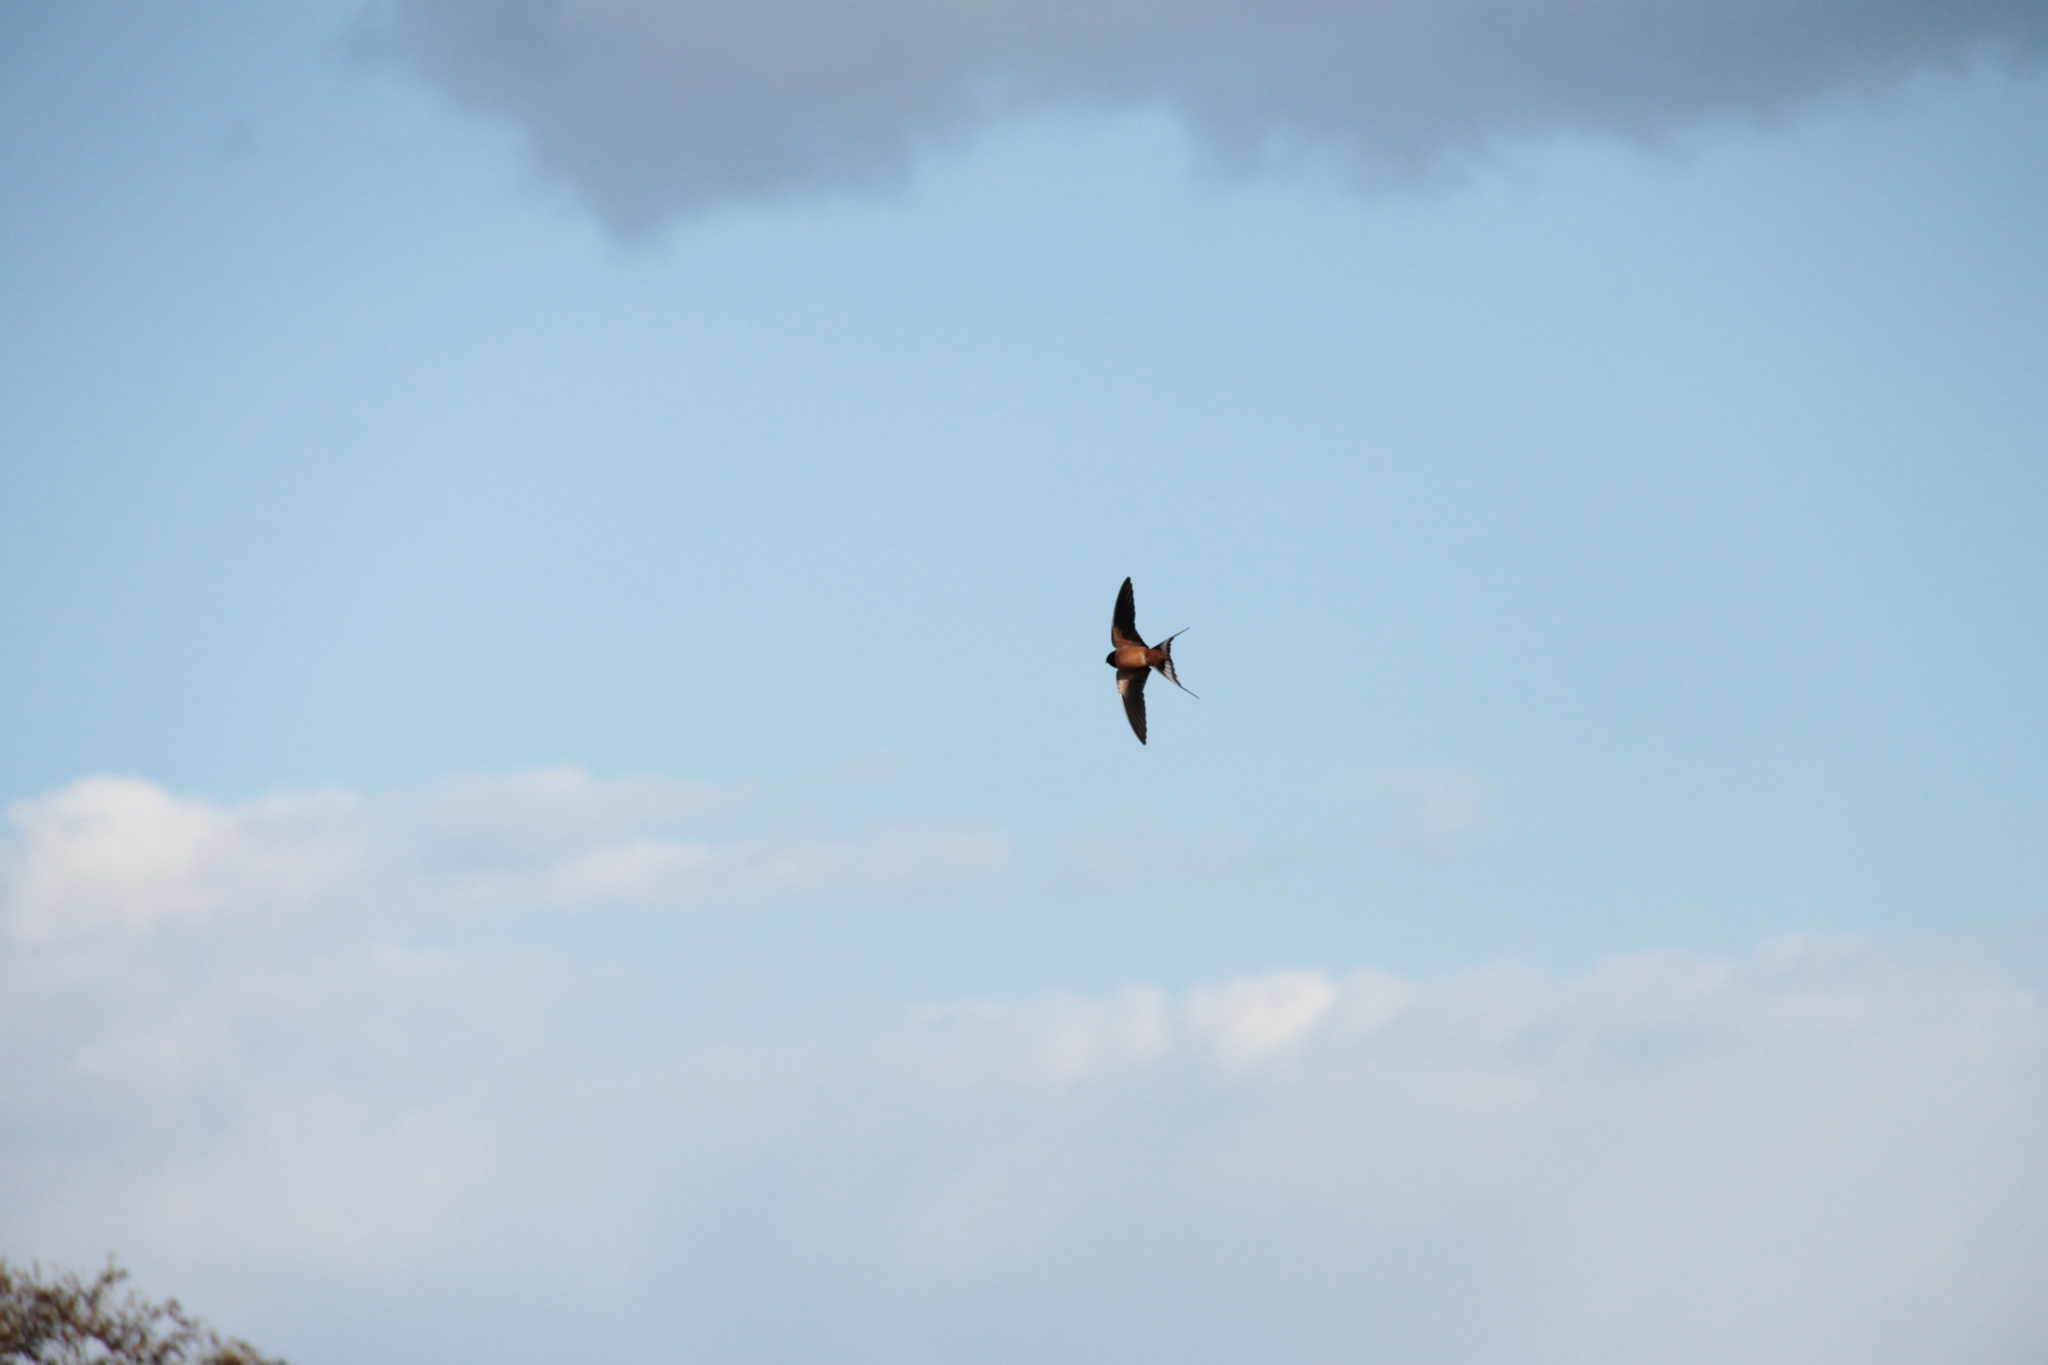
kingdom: Animalia
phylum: Chordata
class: Aves
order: Passeriformes
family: Hirundinidae
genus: Hirundo
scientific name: Hirundo rustica
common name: Barn swallow
